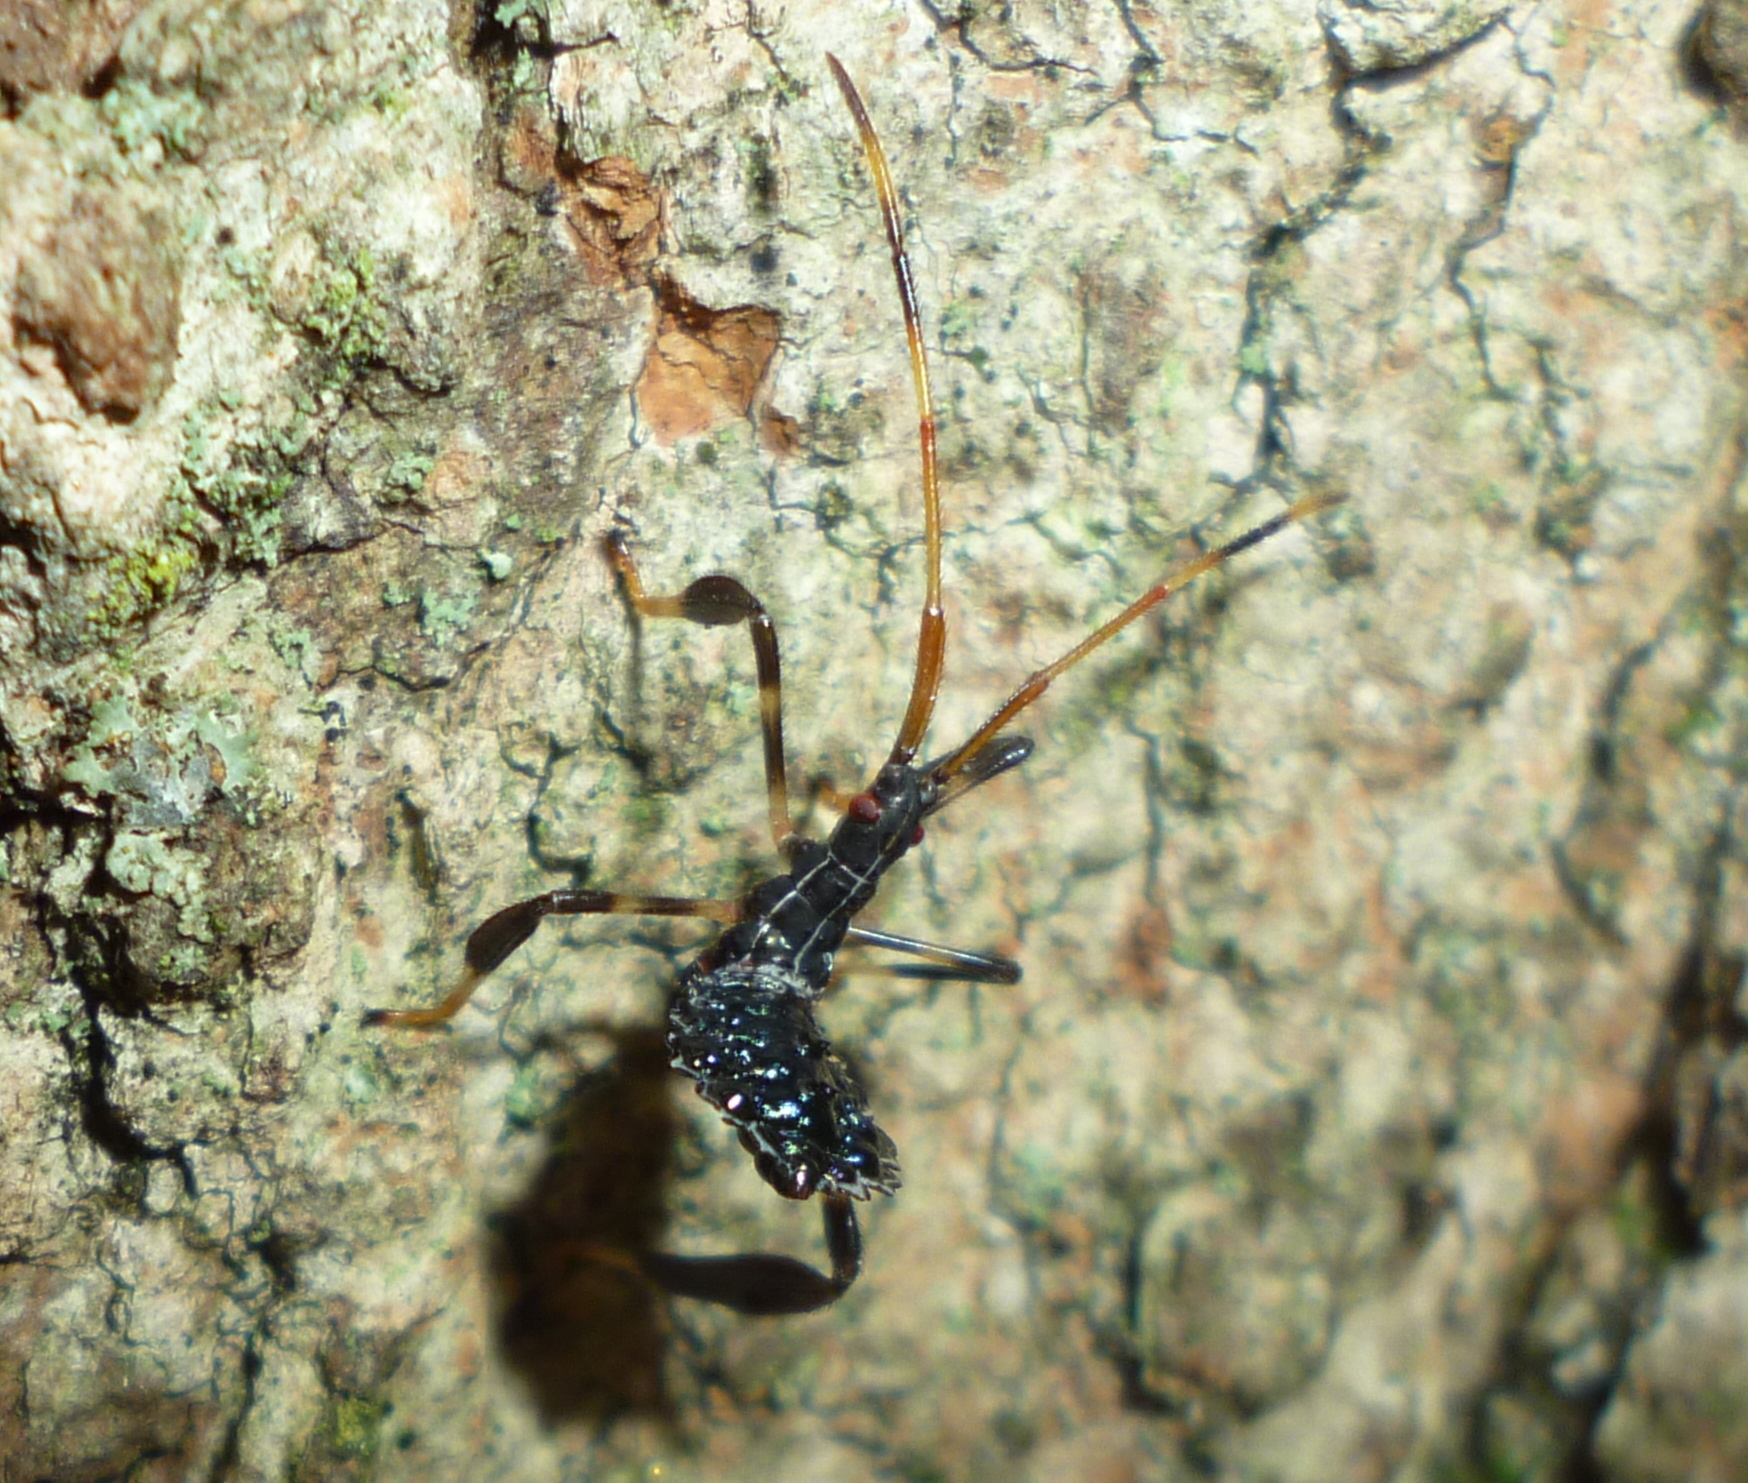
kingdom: Animalia
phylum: Arthropoda
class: Insecta
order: Hemiptera
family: Coreidae
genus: Acanthocephala
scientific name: Acanthocephala terminalis
